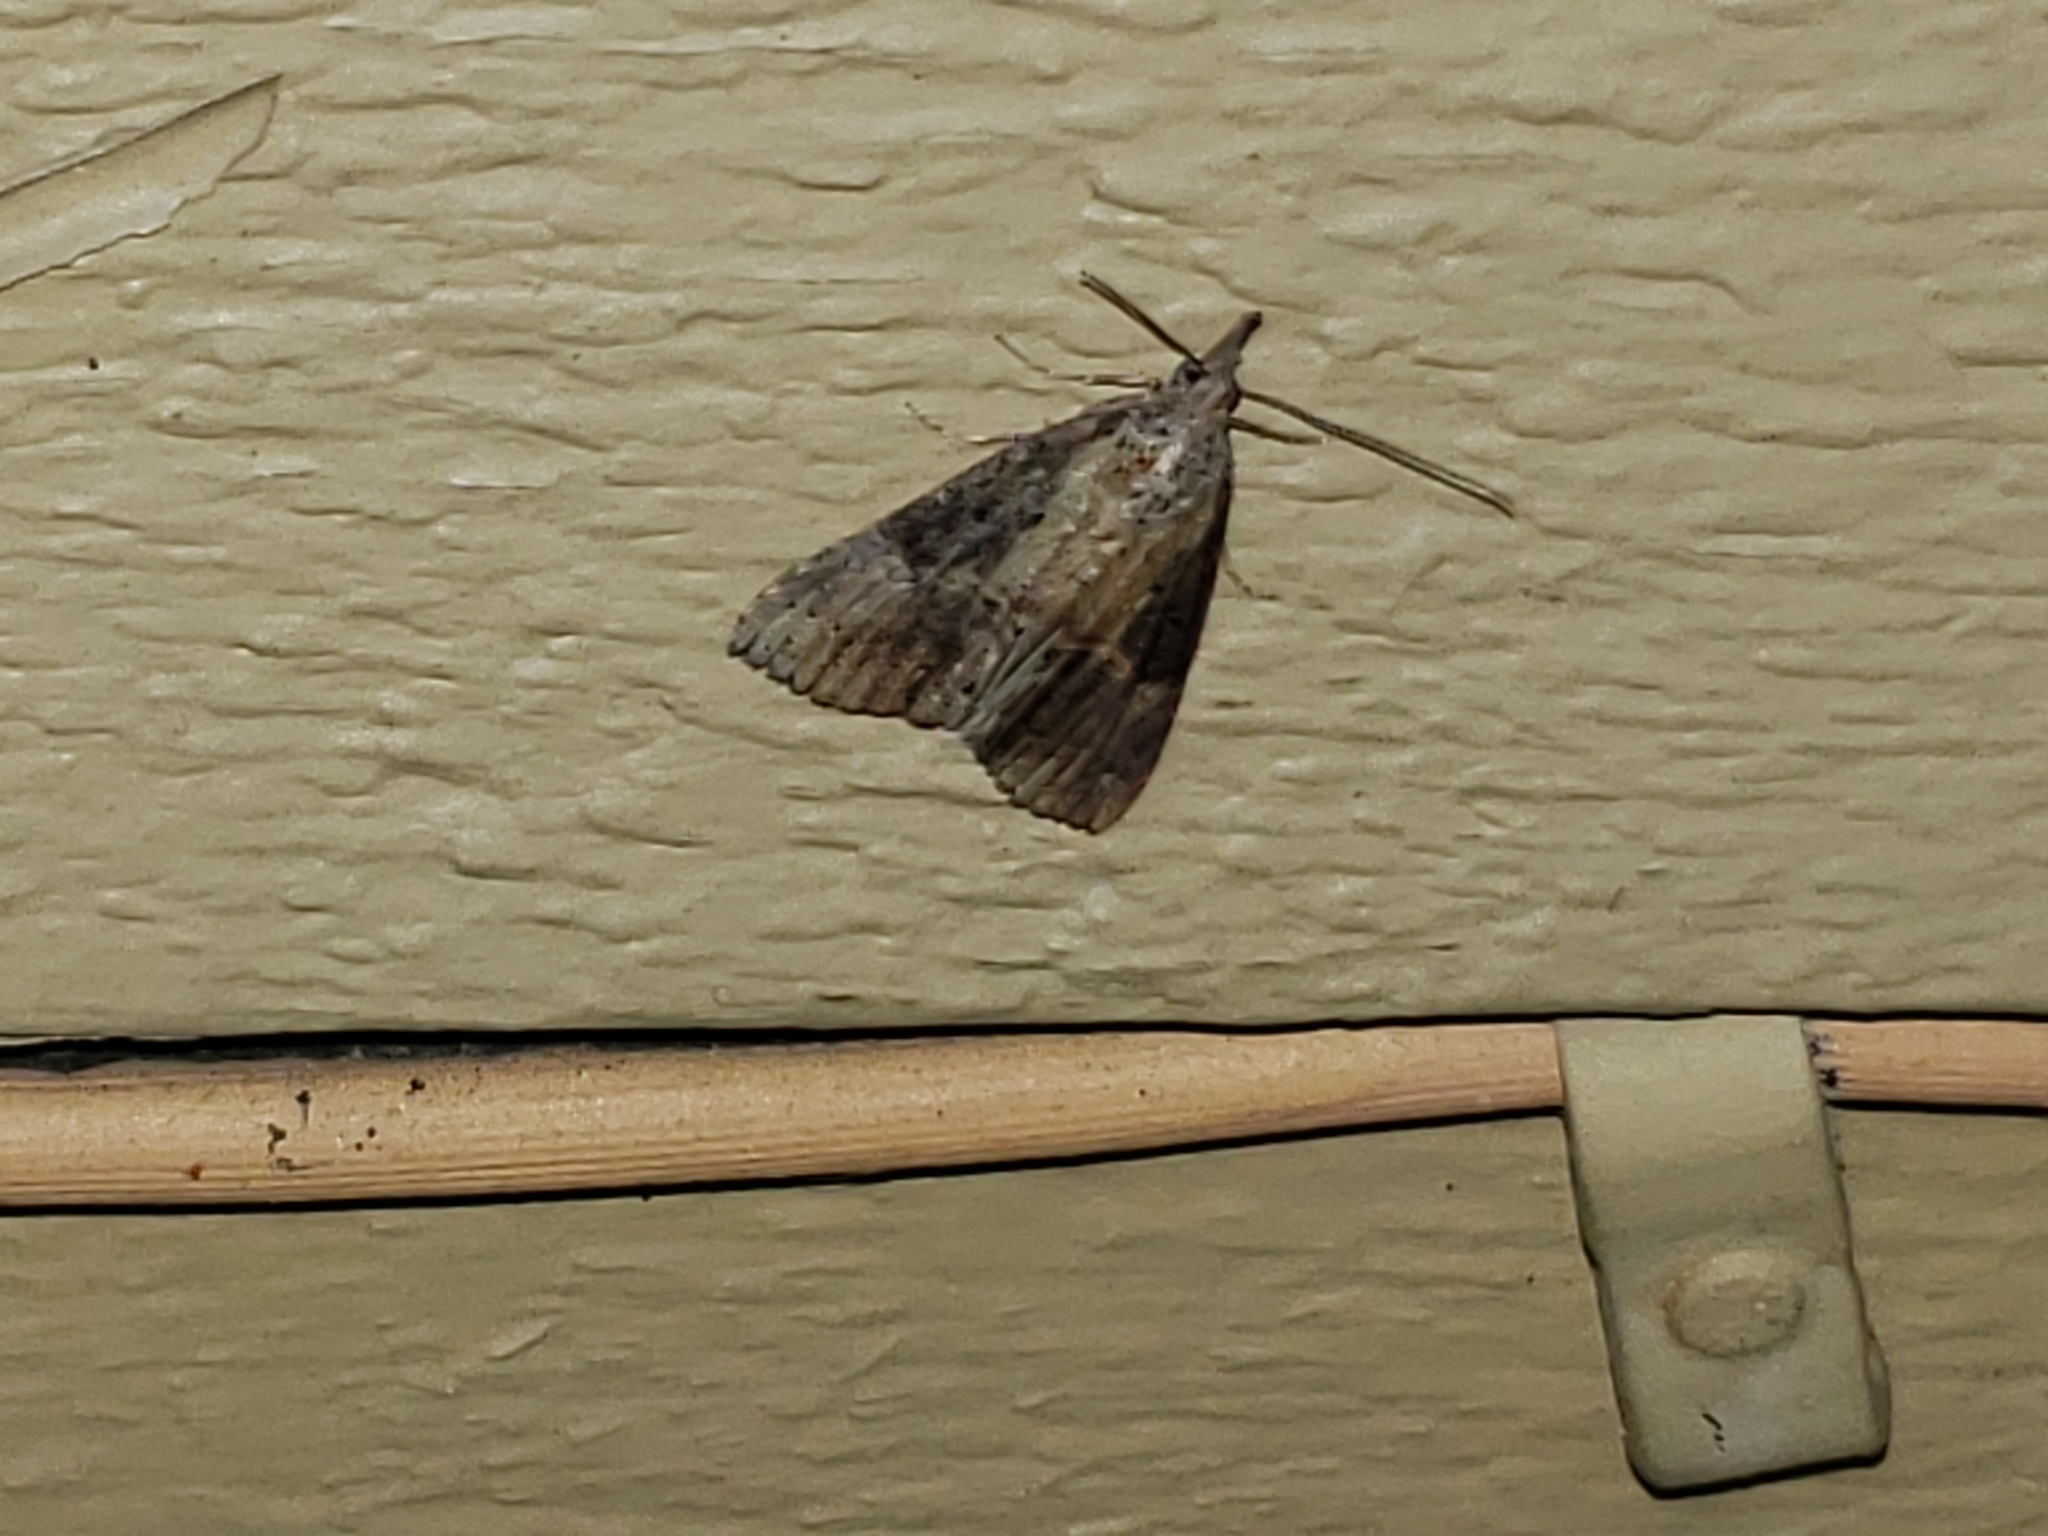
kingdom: Animalia
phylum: Arthropoda
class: Insecta
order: Lepidoptera
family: Erebidae
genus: Hypena
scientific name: Hypena scabra
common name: Green cloverworm
